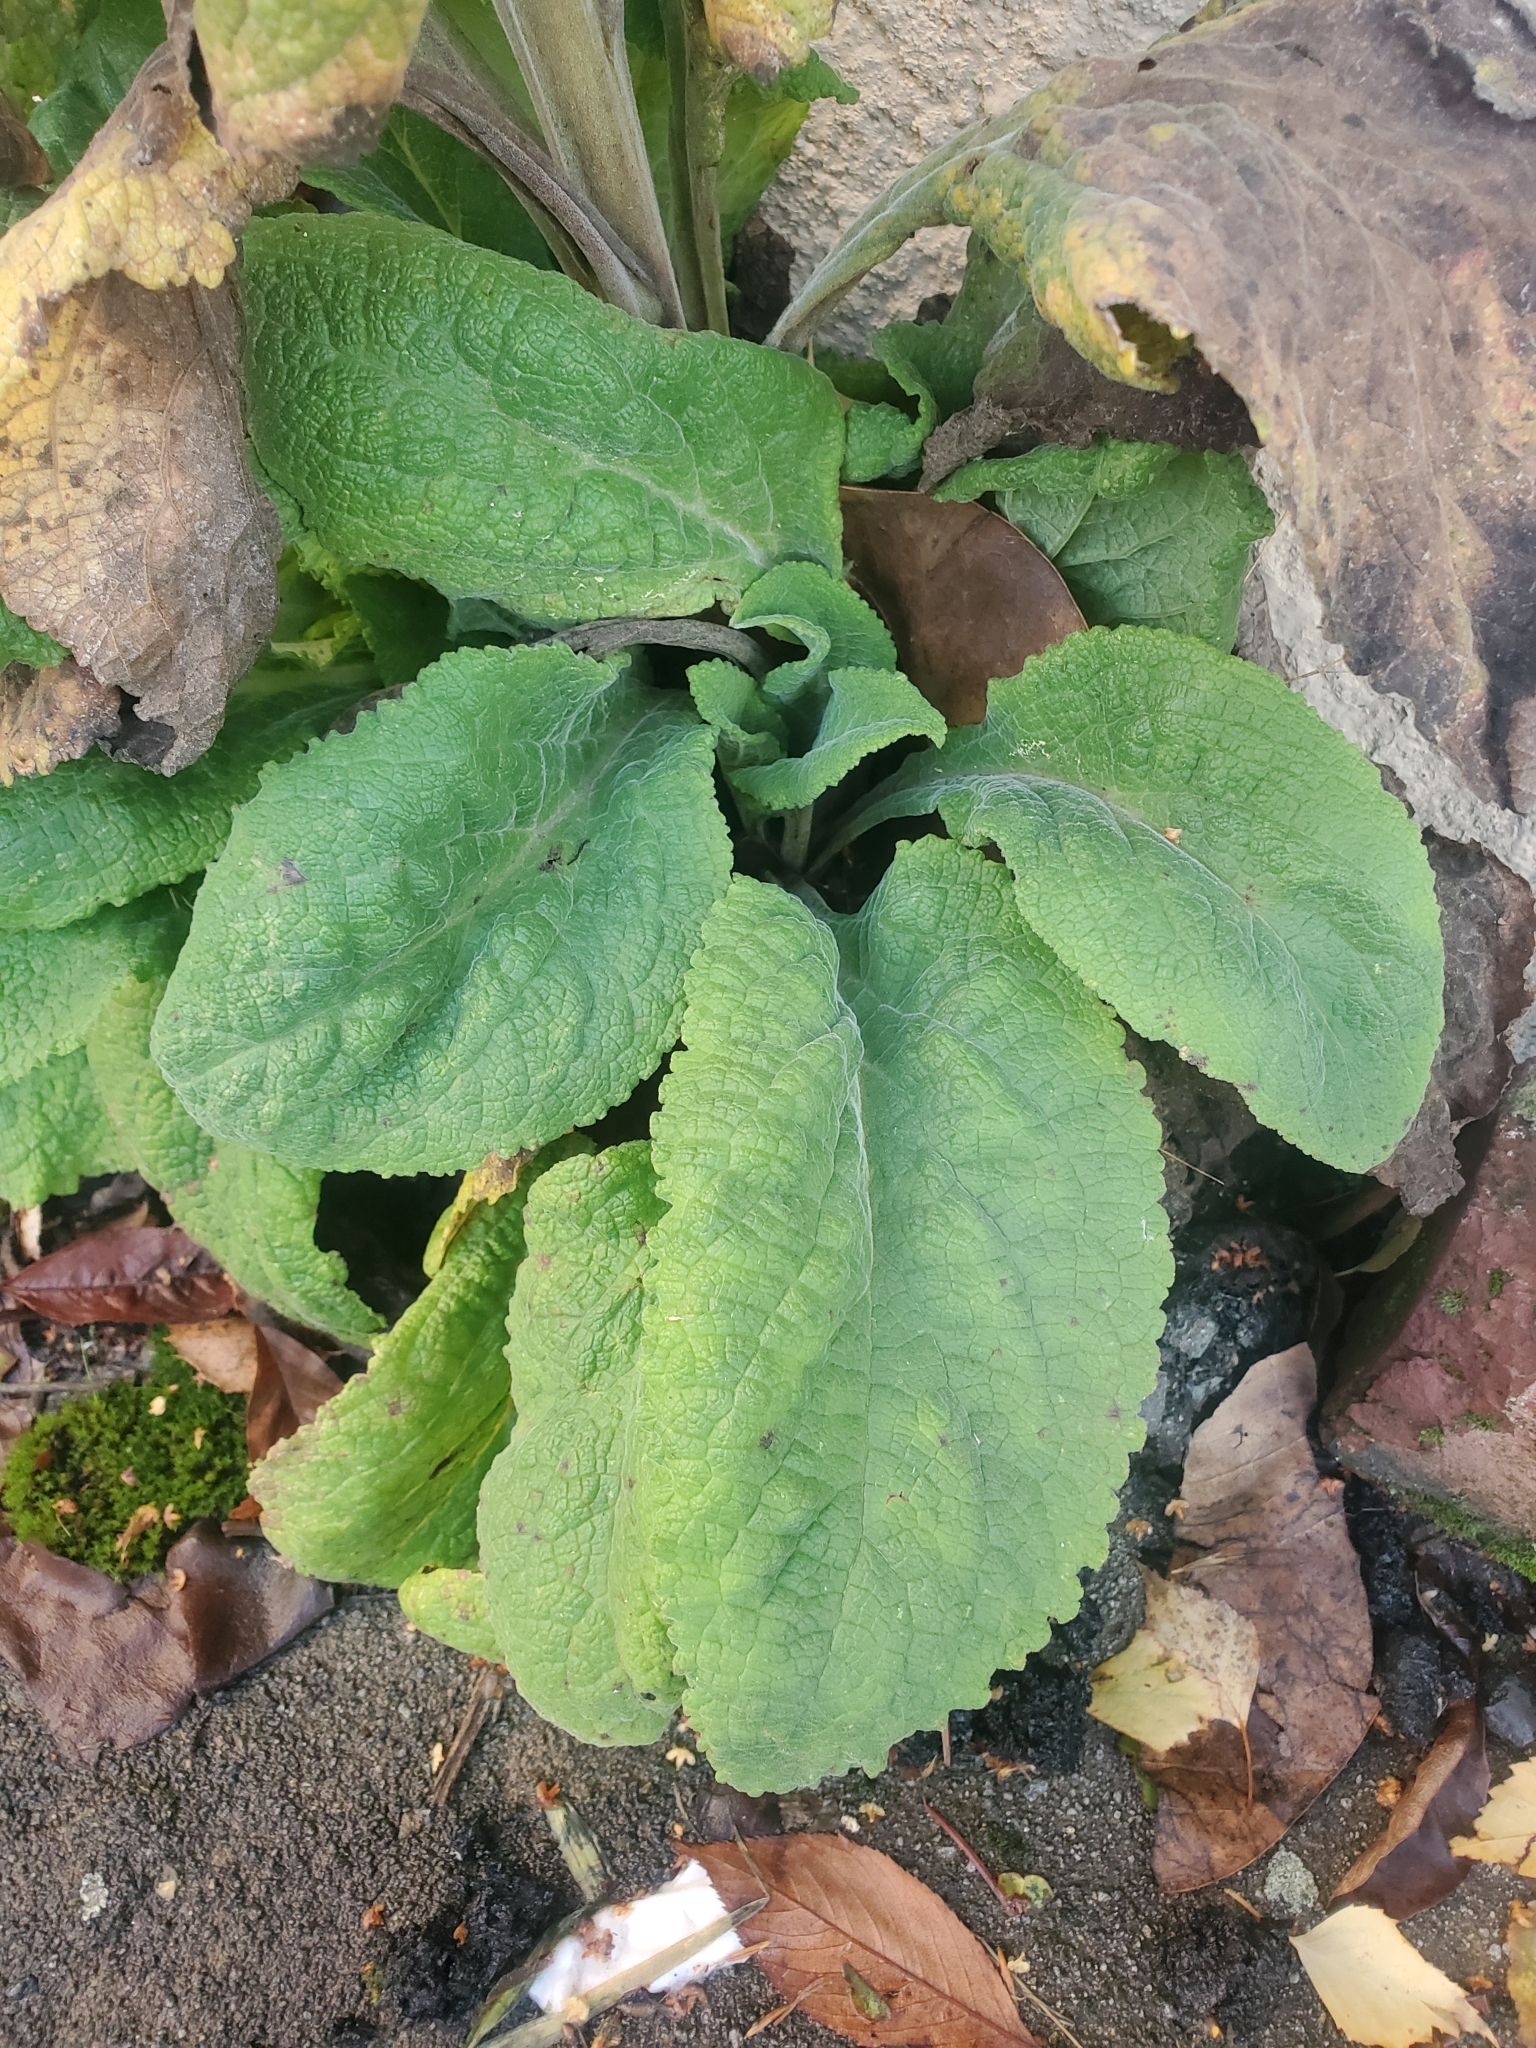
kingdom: Plantae
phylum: Tracheophyta
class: Magnoliopsida
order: Lamiales
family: Plantaginaceae
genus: Digitalis
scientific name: Digitalis purpurea
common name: Foxglove
